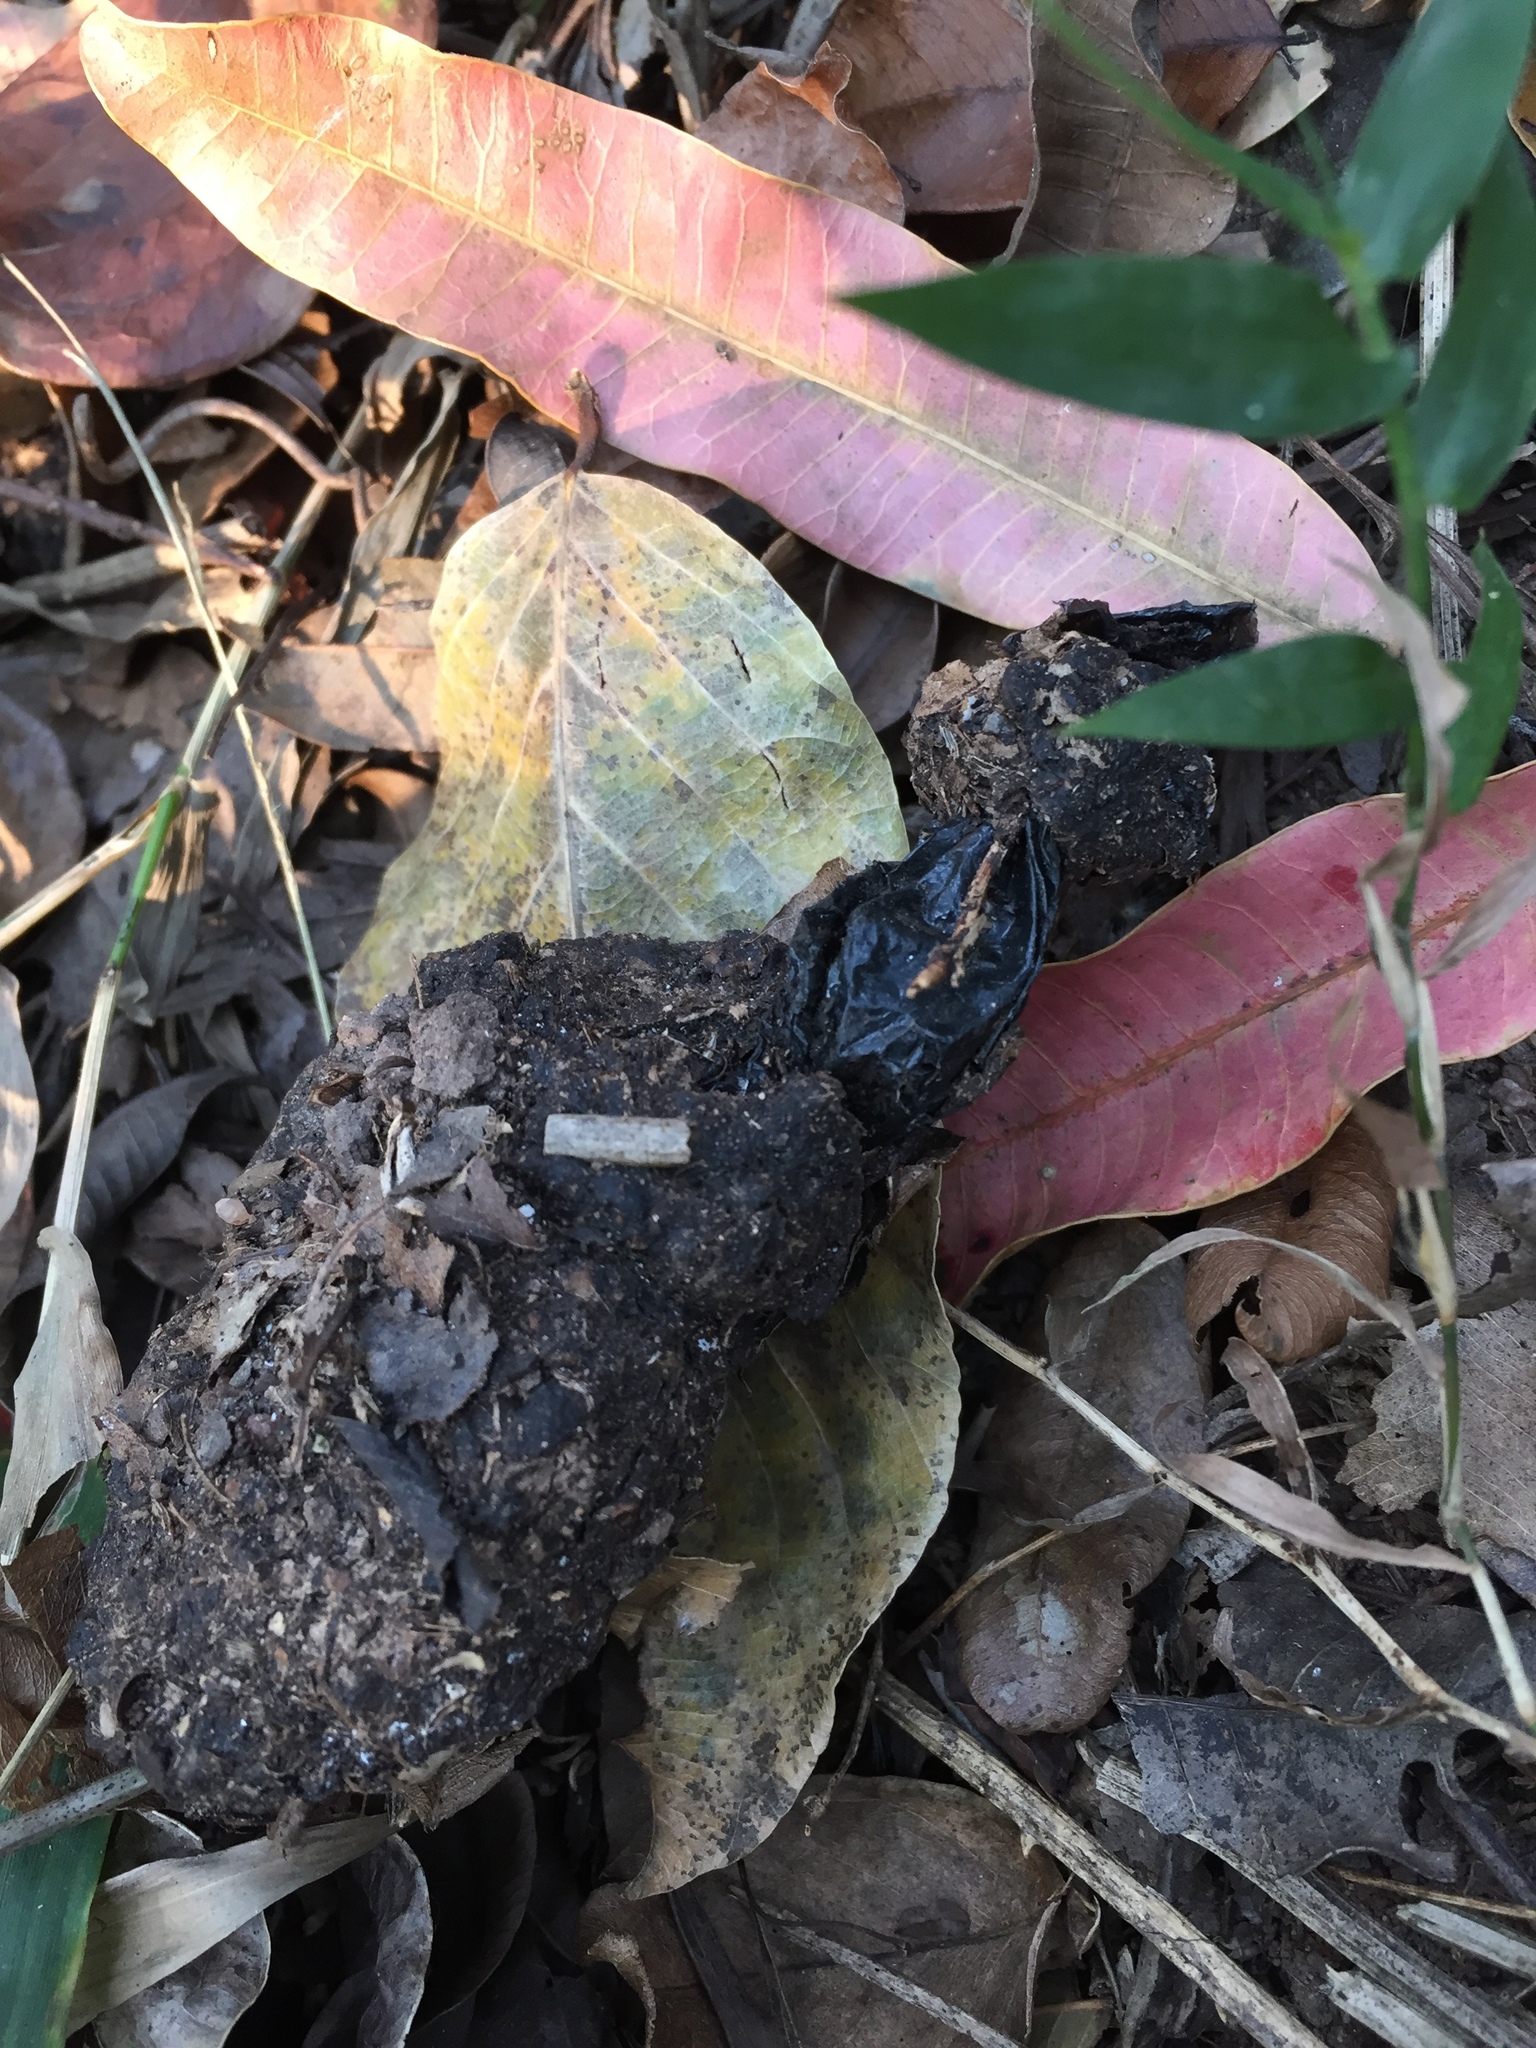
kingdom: Animalia
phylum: Chordata
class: Mammalia
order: Artiodactyla
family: Suidae
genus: Potamochoerus
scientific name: Potamochoerus larvatus
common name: Bushpig
